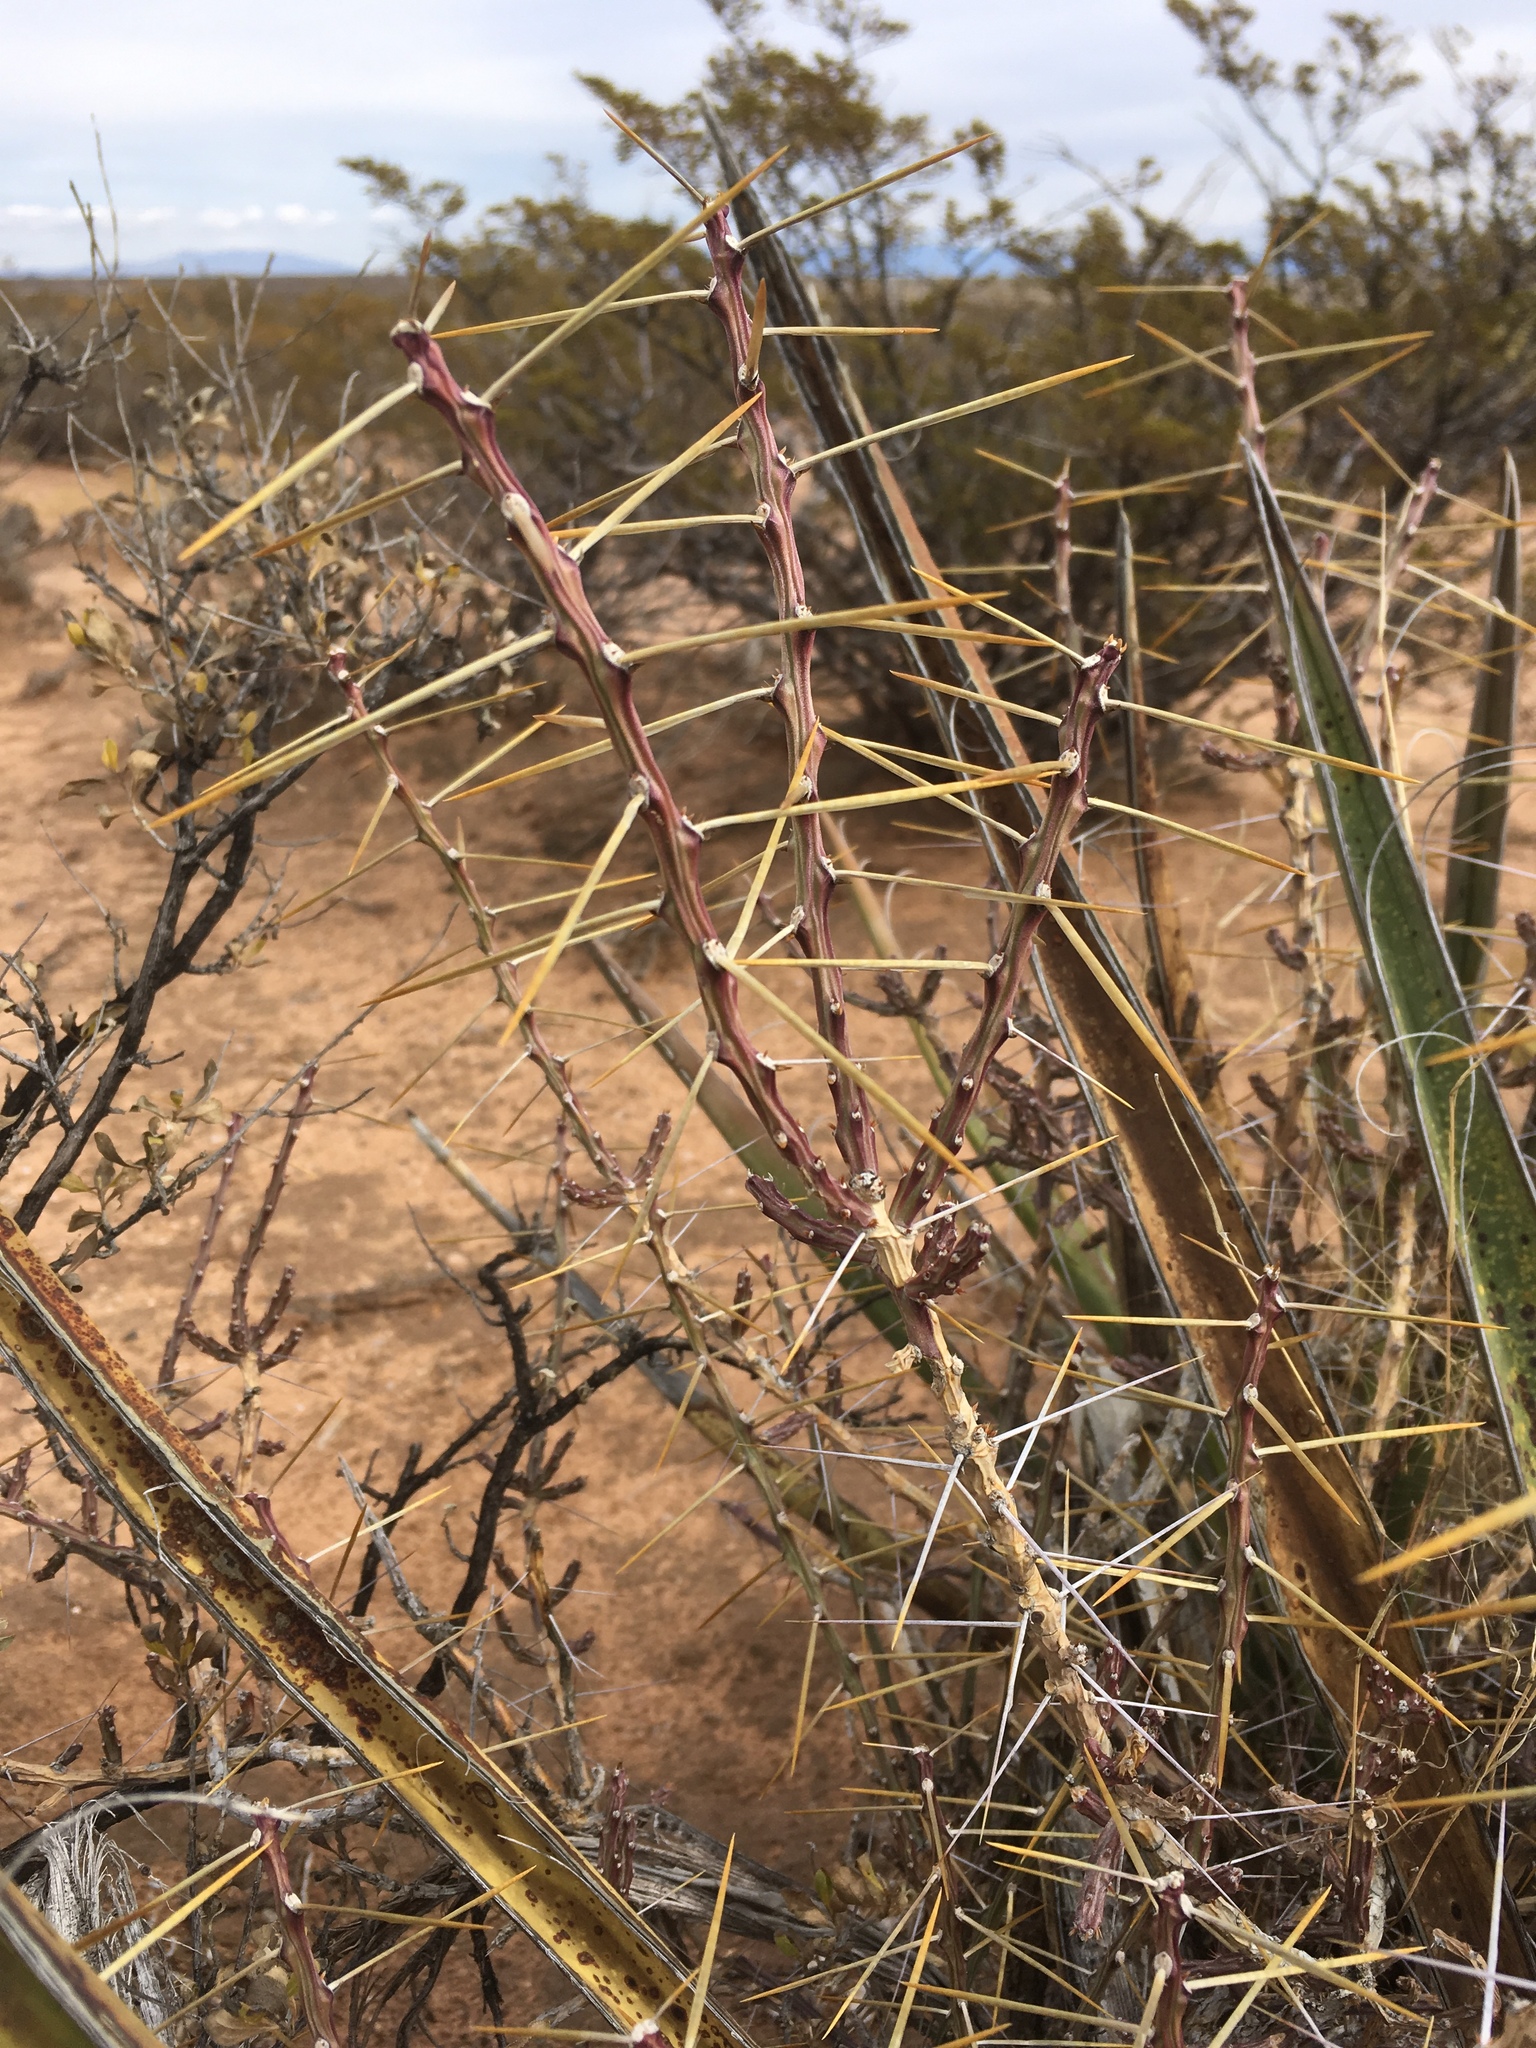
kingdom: Plantae
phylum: Tracheophyta
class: Magnoliopsida
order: Caryophyllales
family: Cactaceae
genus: Cylindropuntia
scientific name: Cylindropuntia leptocaulis
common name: Christmas cactus
